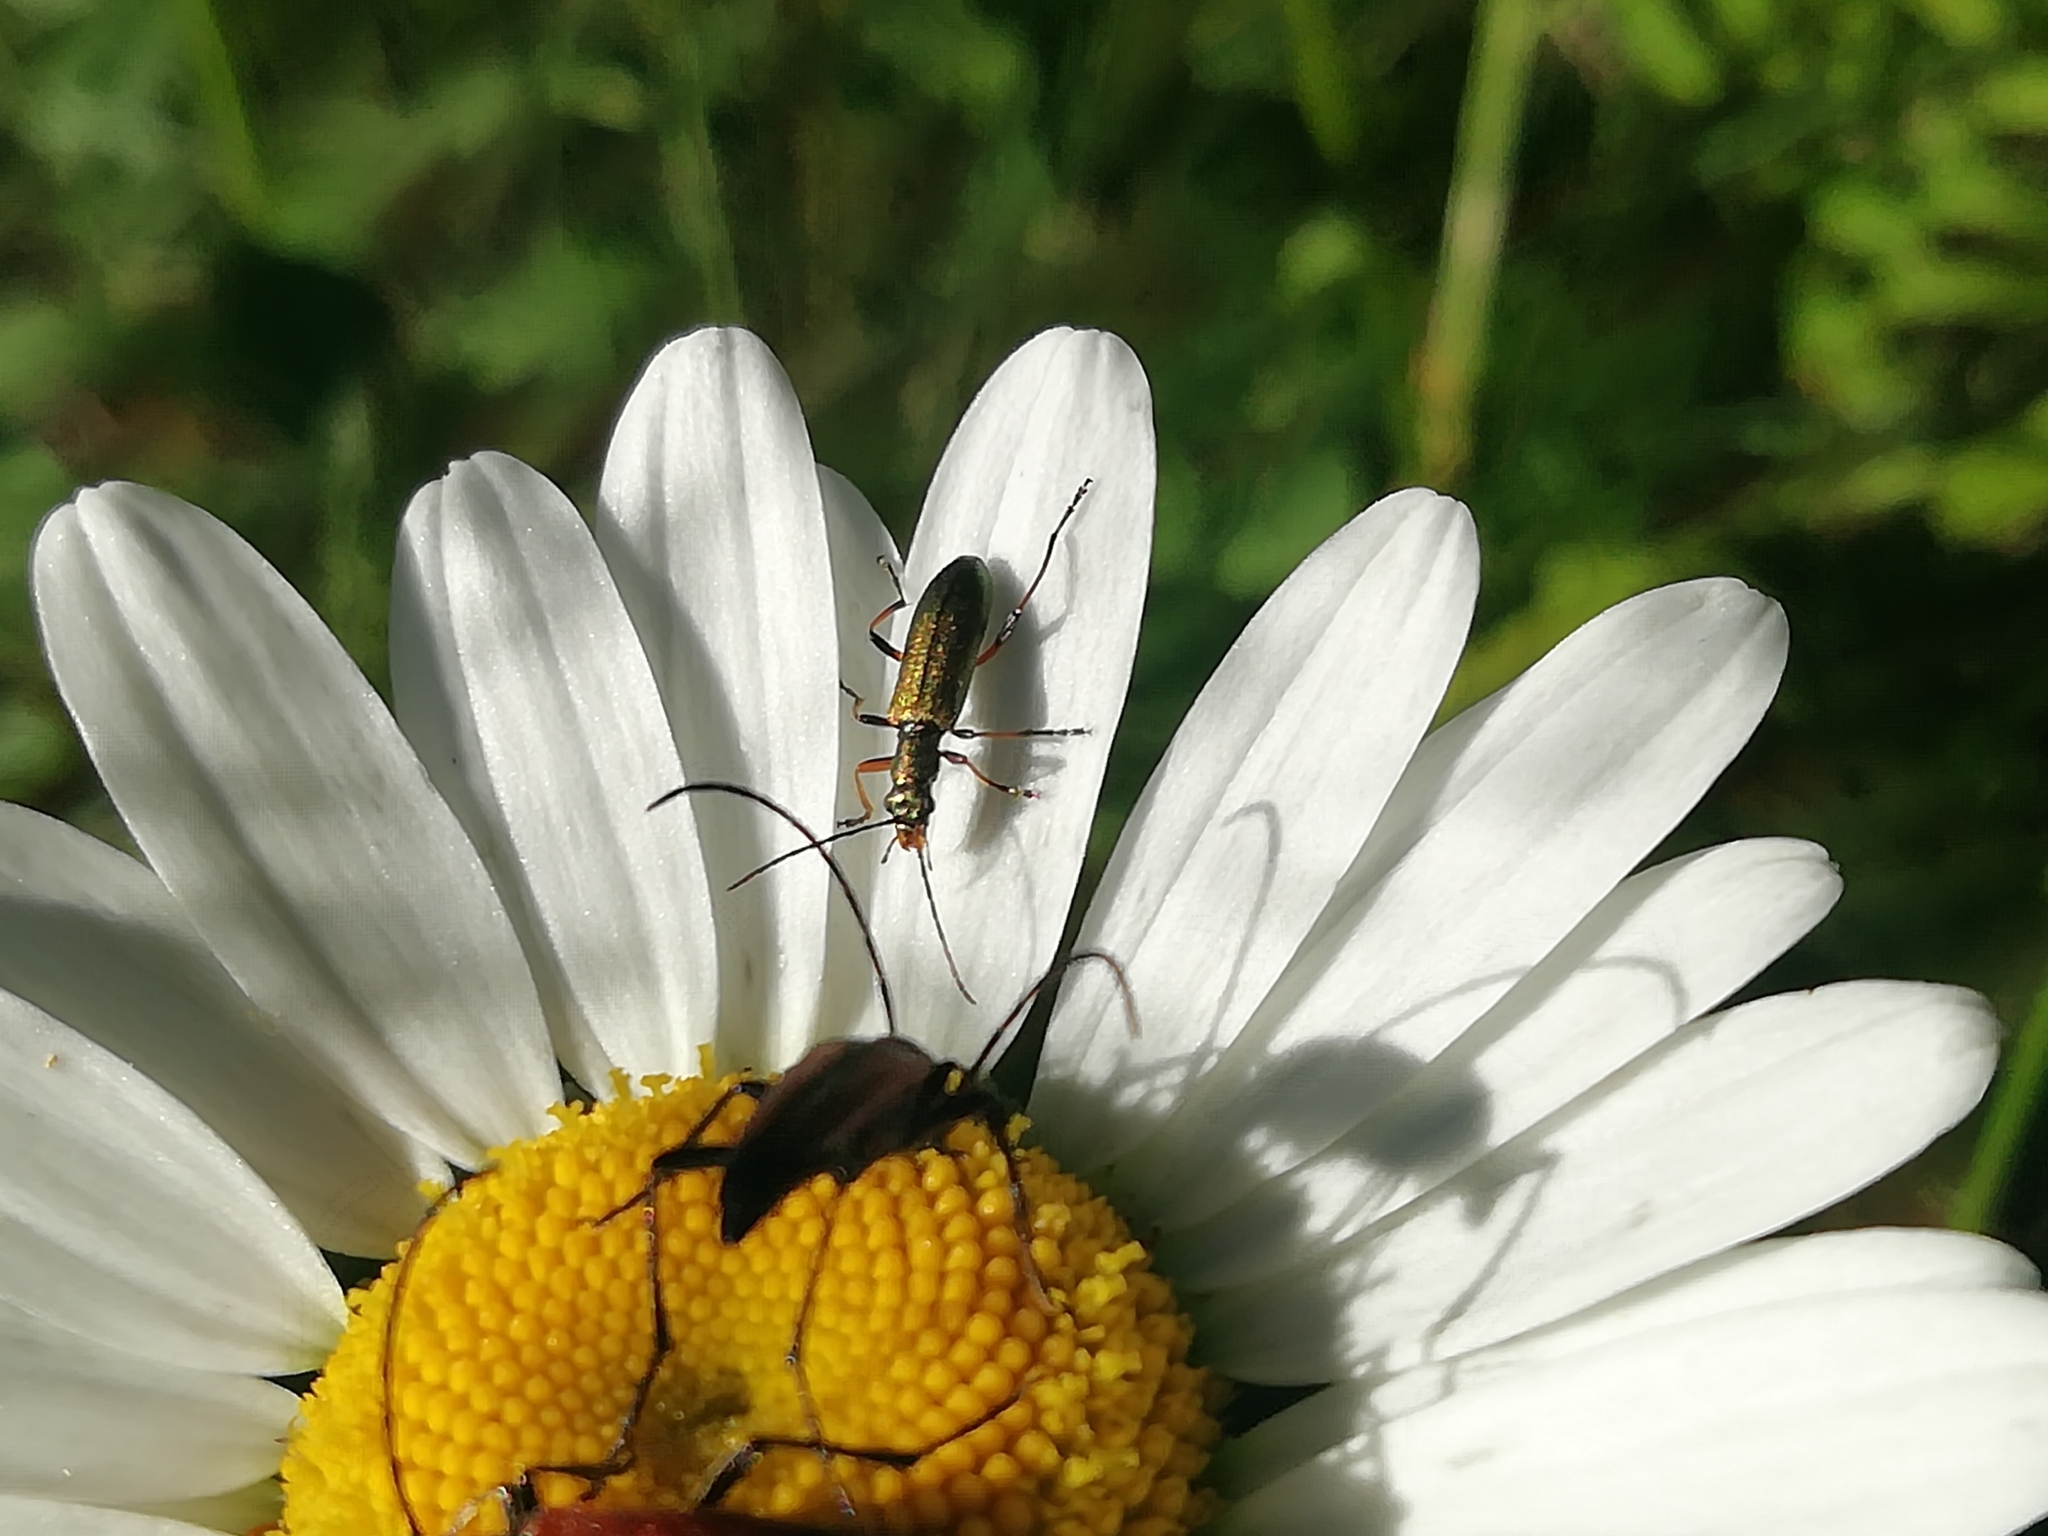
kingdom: Animalia
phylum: Arthropoda
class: Insecta
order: Coleoptera
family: Oedemeridae
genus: Chrysanthia
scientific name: Chrysanthia geniculata
